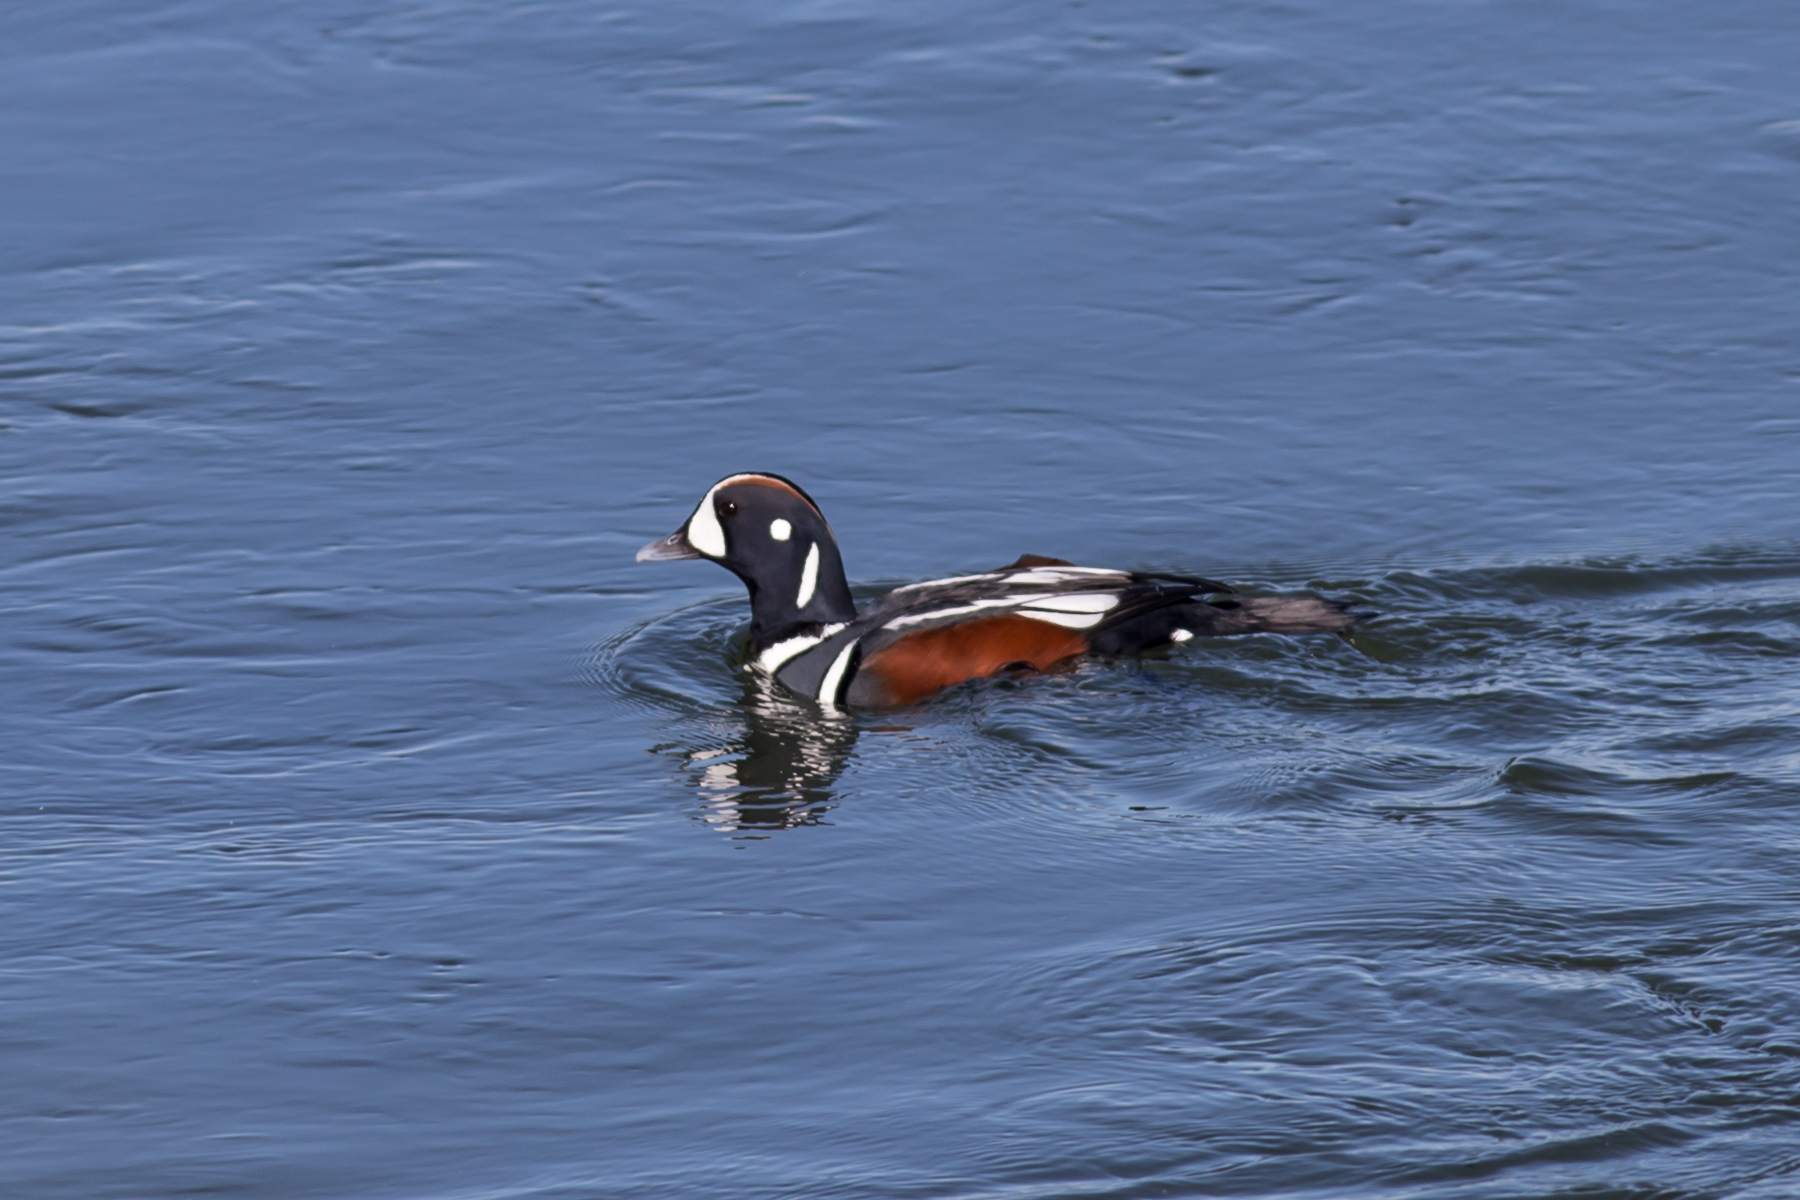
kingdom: Animalia
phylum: Chordata
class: Aves
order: Anseriformes
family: Anatidae
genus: Histrionicus
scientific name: Histrionicus histrionicus
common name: Harlequin duck
